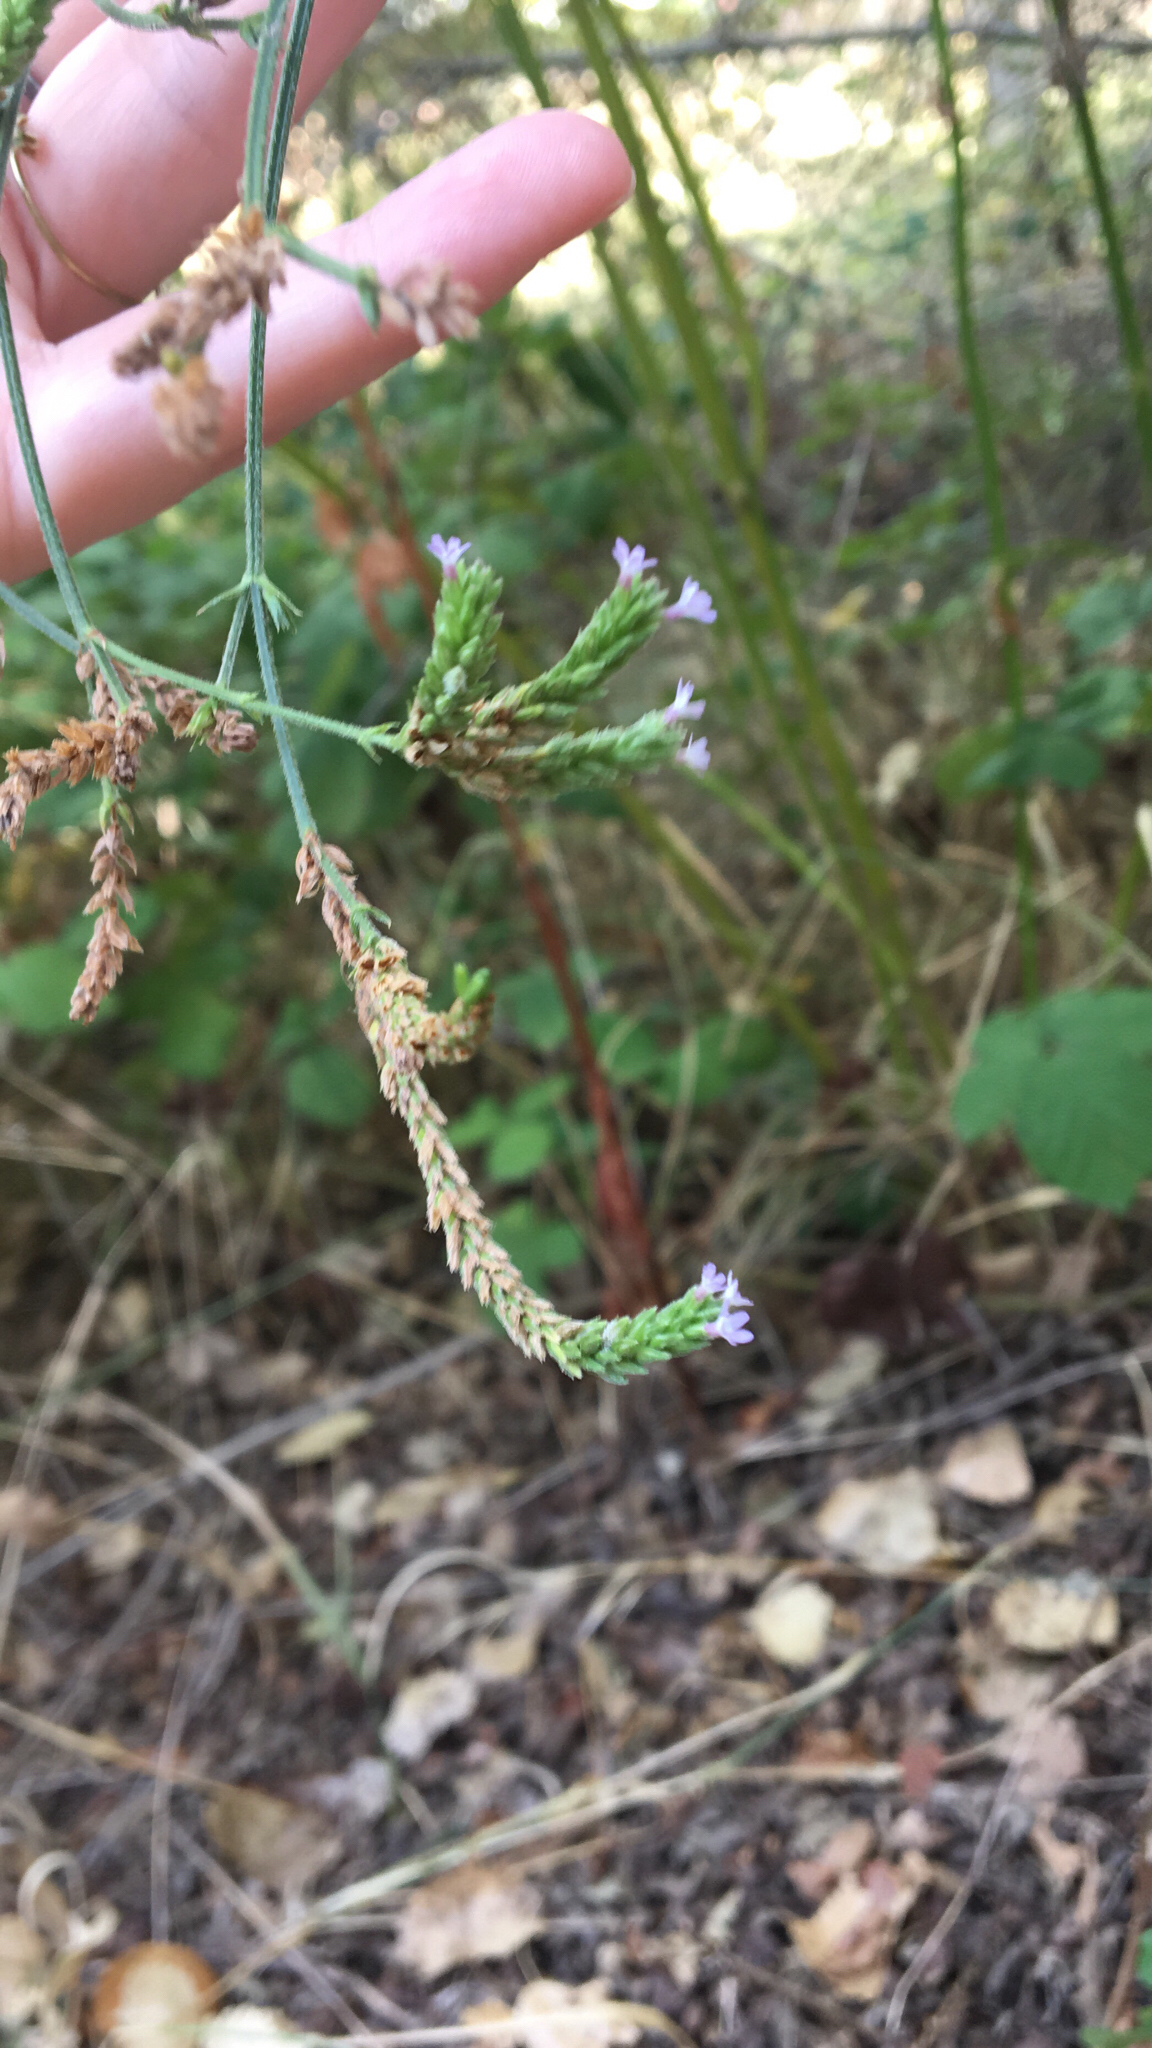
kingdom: Plantae
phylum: Tracheophyta
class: Magnoliopsida
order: Lamiales
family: Verbenaceae
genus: Verbena
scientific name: Verbena brasiliensis
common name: Brazilian vervain
